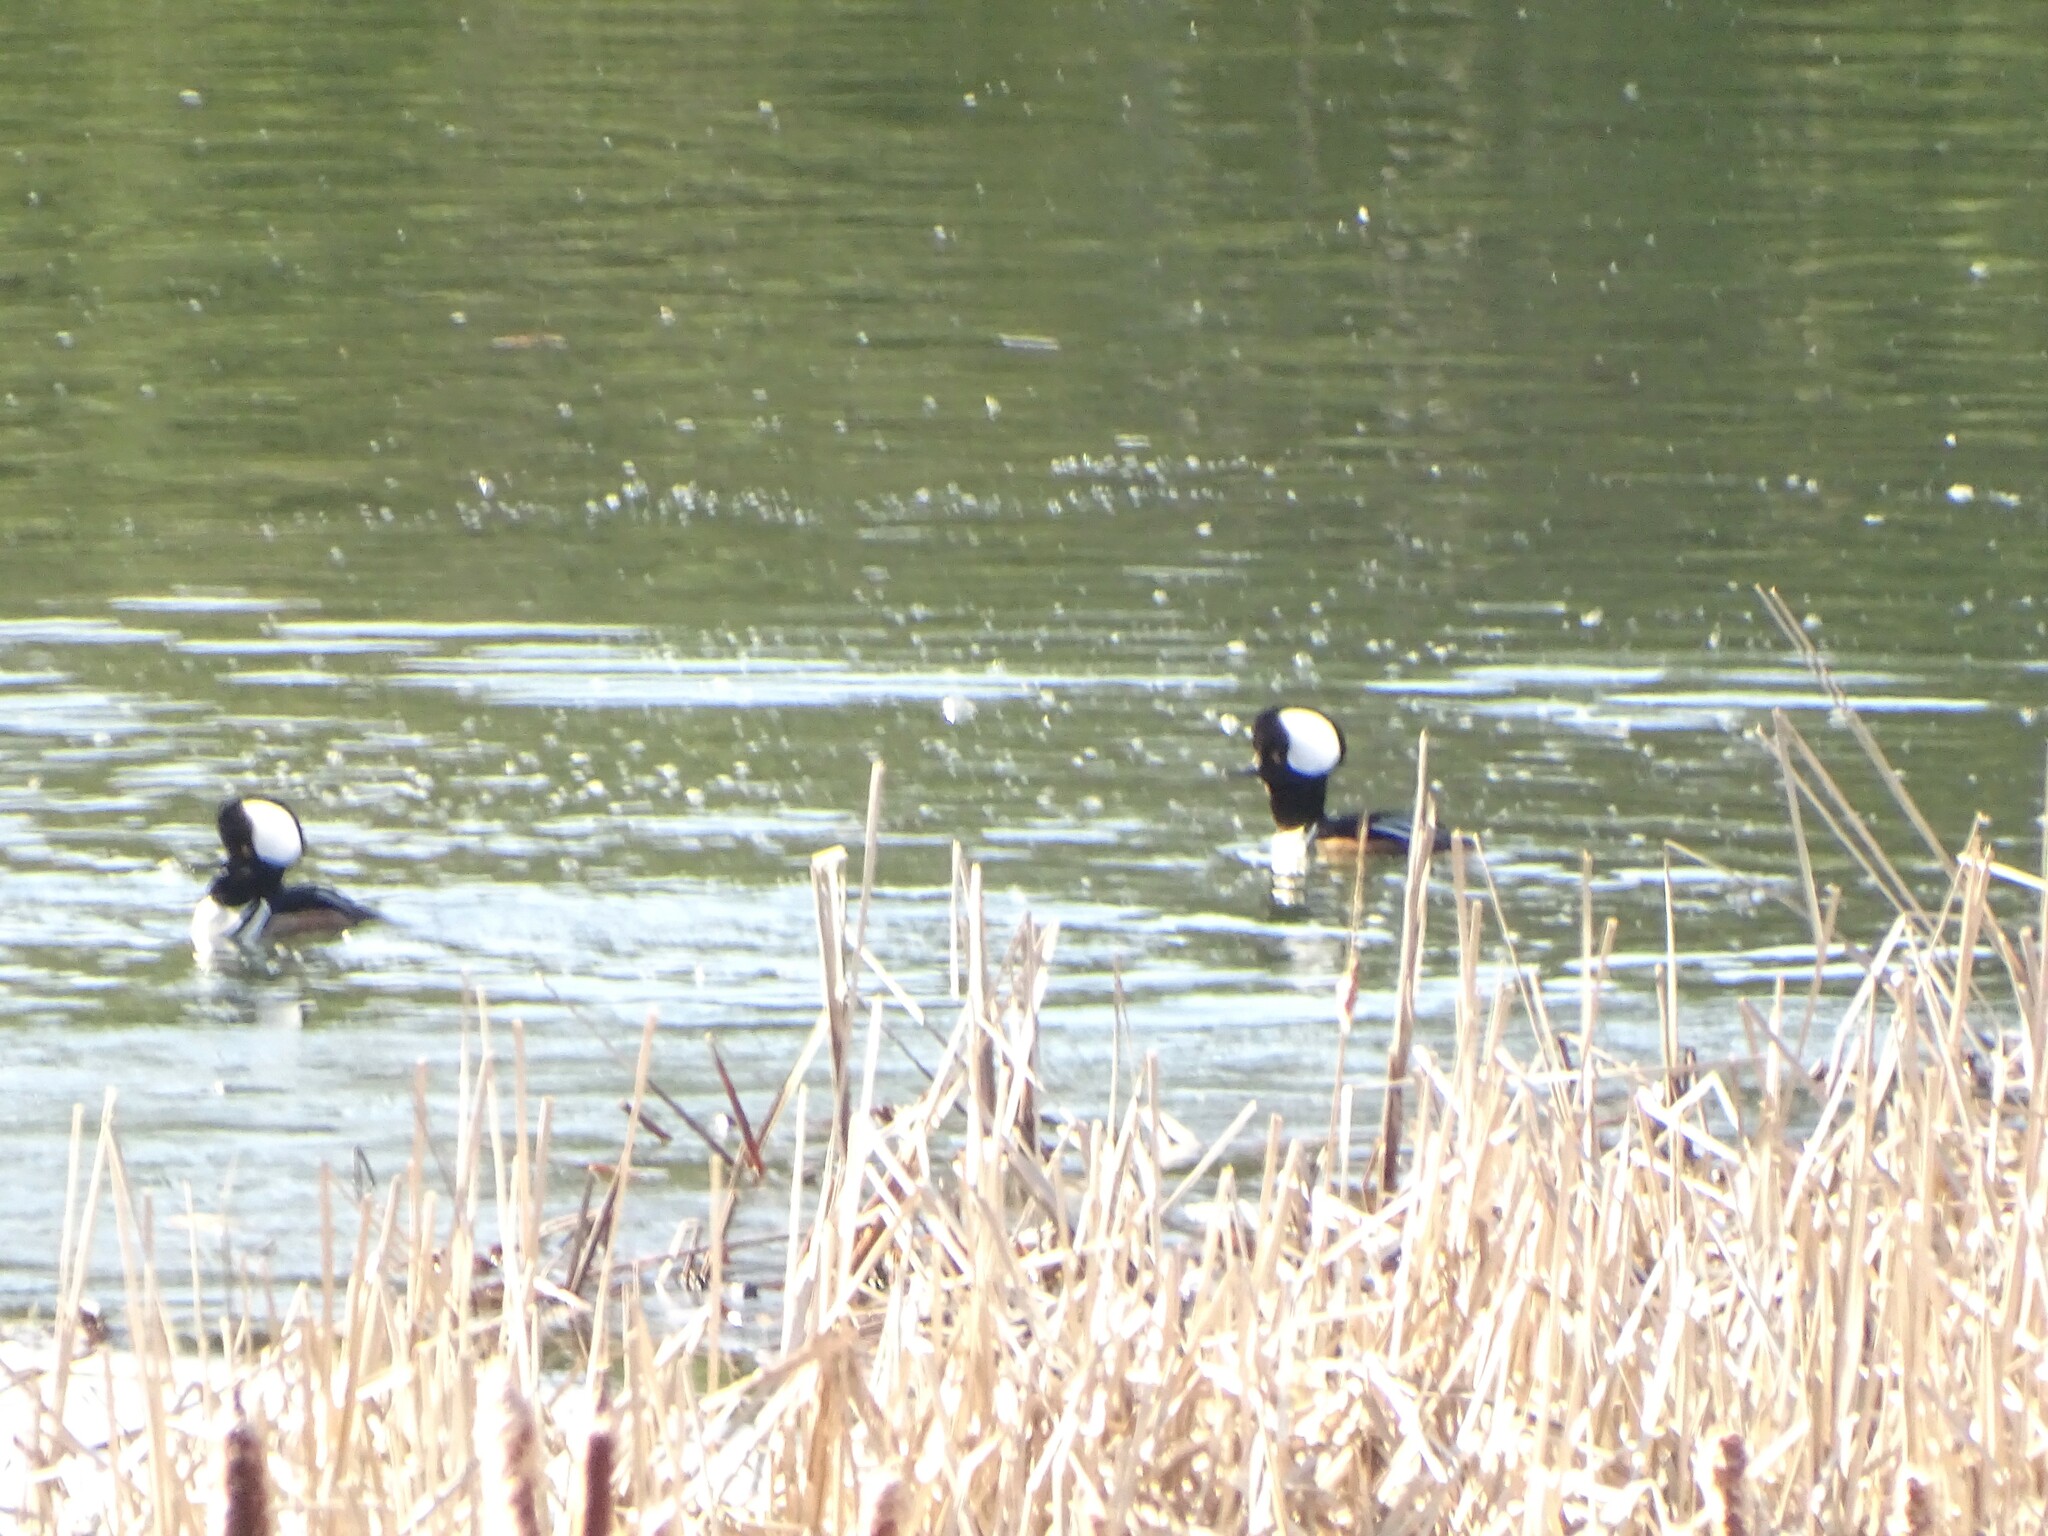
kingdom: Animalia
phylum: Chordata
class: Aves
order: Anseriformes
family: Anatidae
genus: Lophodytes
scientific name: Lophodytes cucullatus
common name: Hooded merganser
